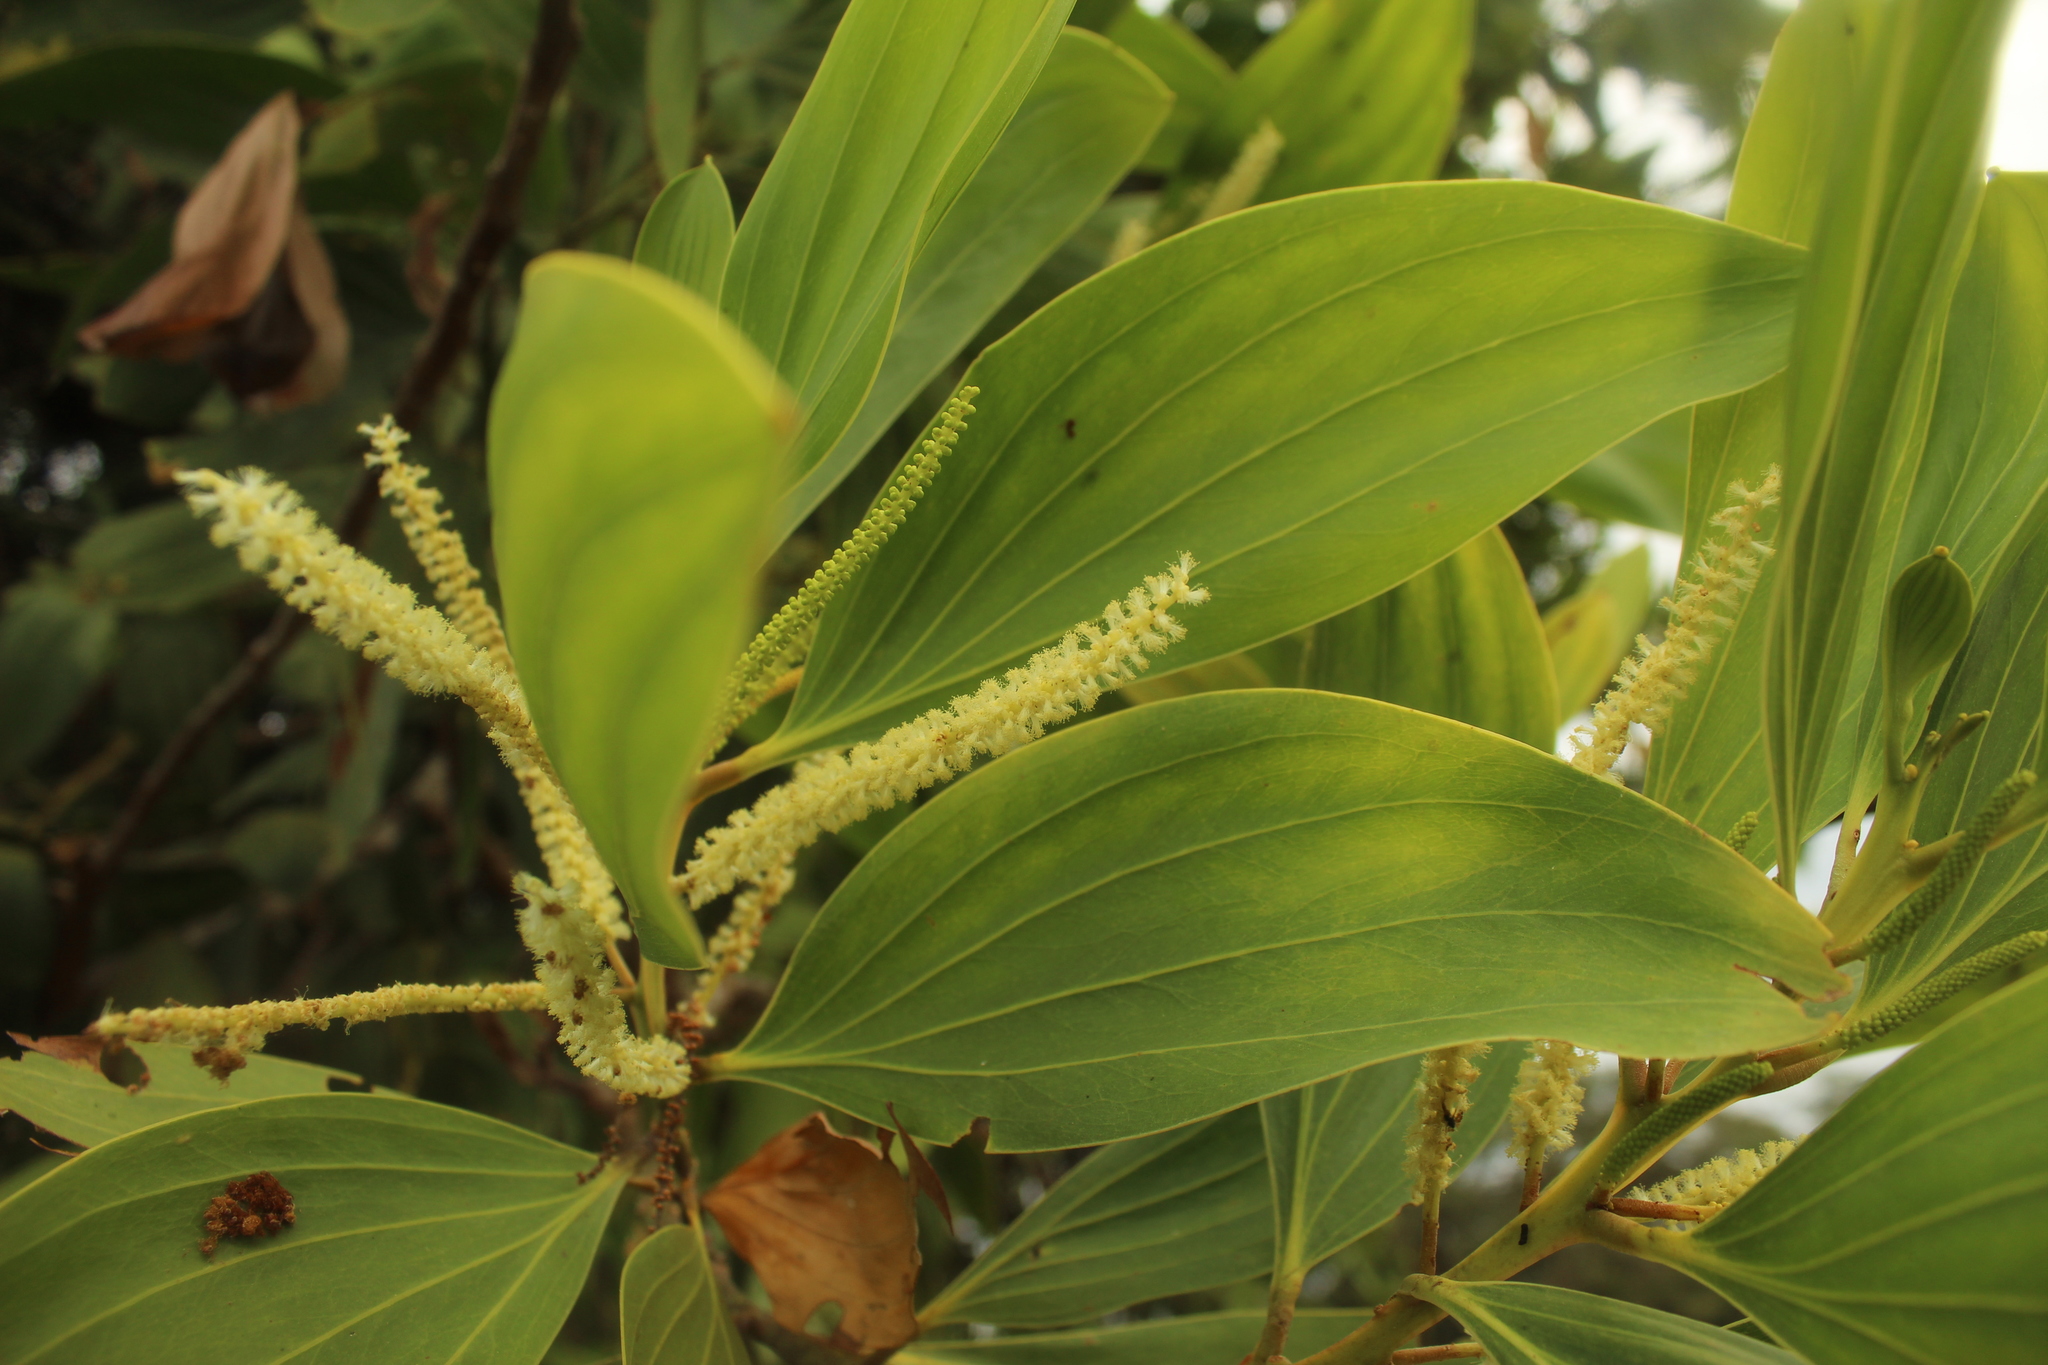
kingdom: Plantae
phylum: Tracheophyta
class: Magnoliopsida
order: Fabales
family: Fabaceae
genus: Acacia
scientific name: Acacia mangium
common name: Black wattle
